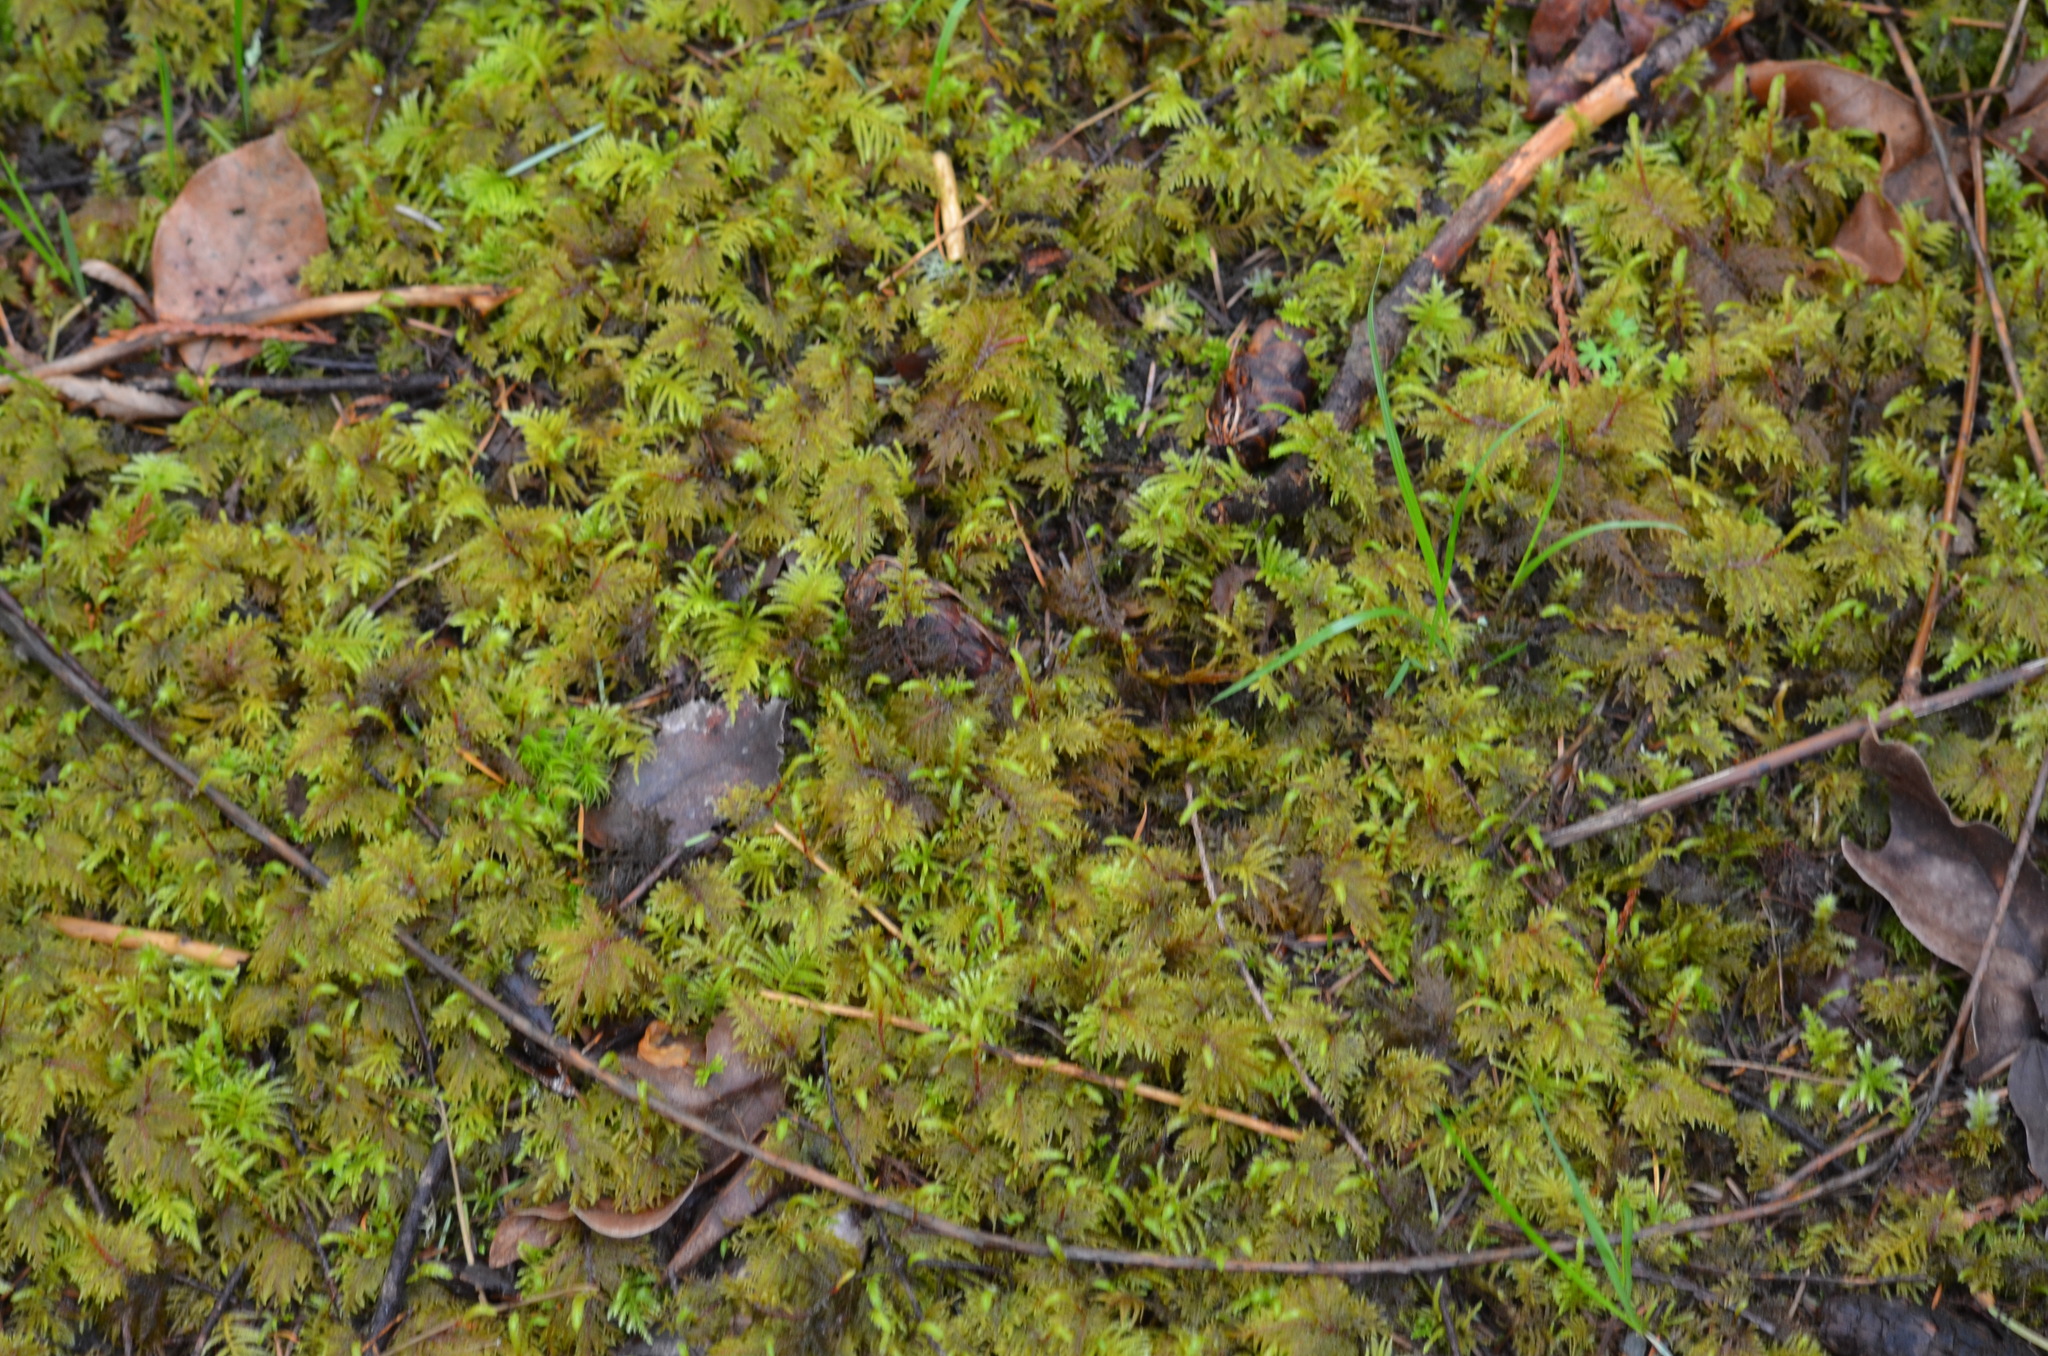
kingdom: Plantae
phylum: Bryophyta
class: Bryopsida
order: Hypnales
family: Hylocomiaceae
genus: Hylocomium
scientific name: Hylocomium splendens
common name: Stairstep moss
